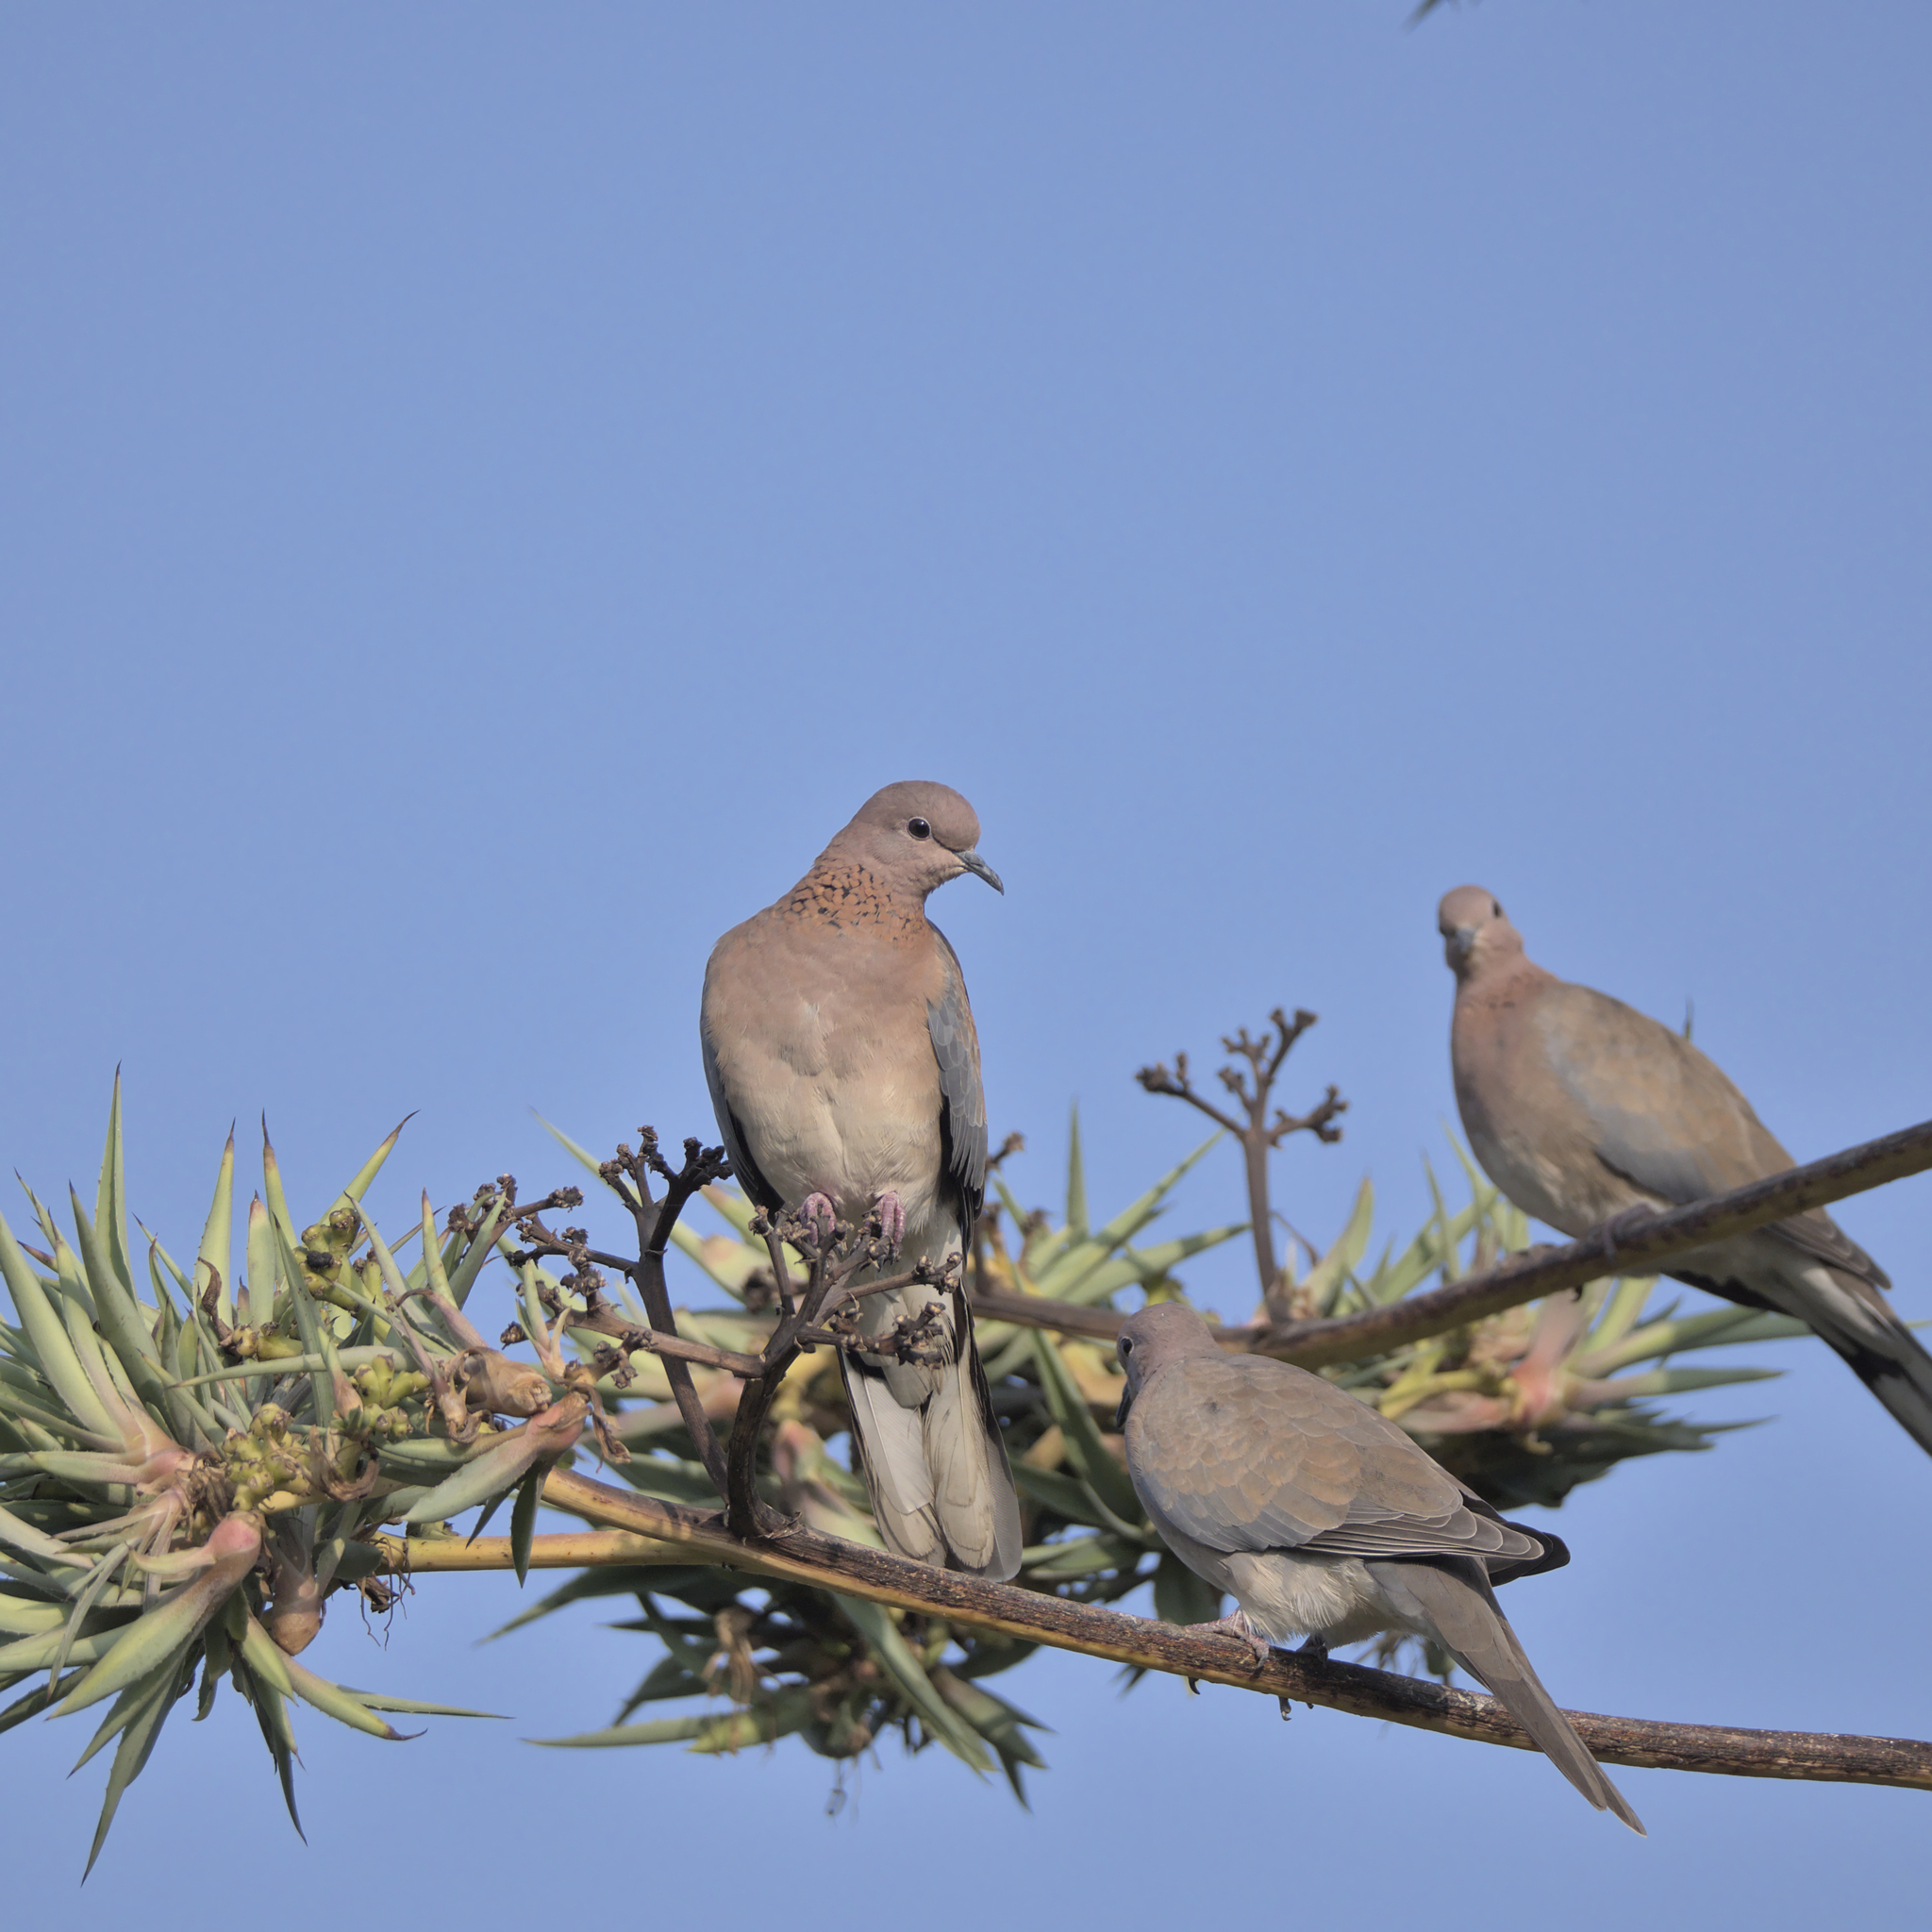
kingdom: Animalia
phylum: Chordata
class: Aves
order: Columbiformes
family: Columbidae
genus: Spilopelia
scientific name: Spilopelia senegalensis
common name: Laughing dove
